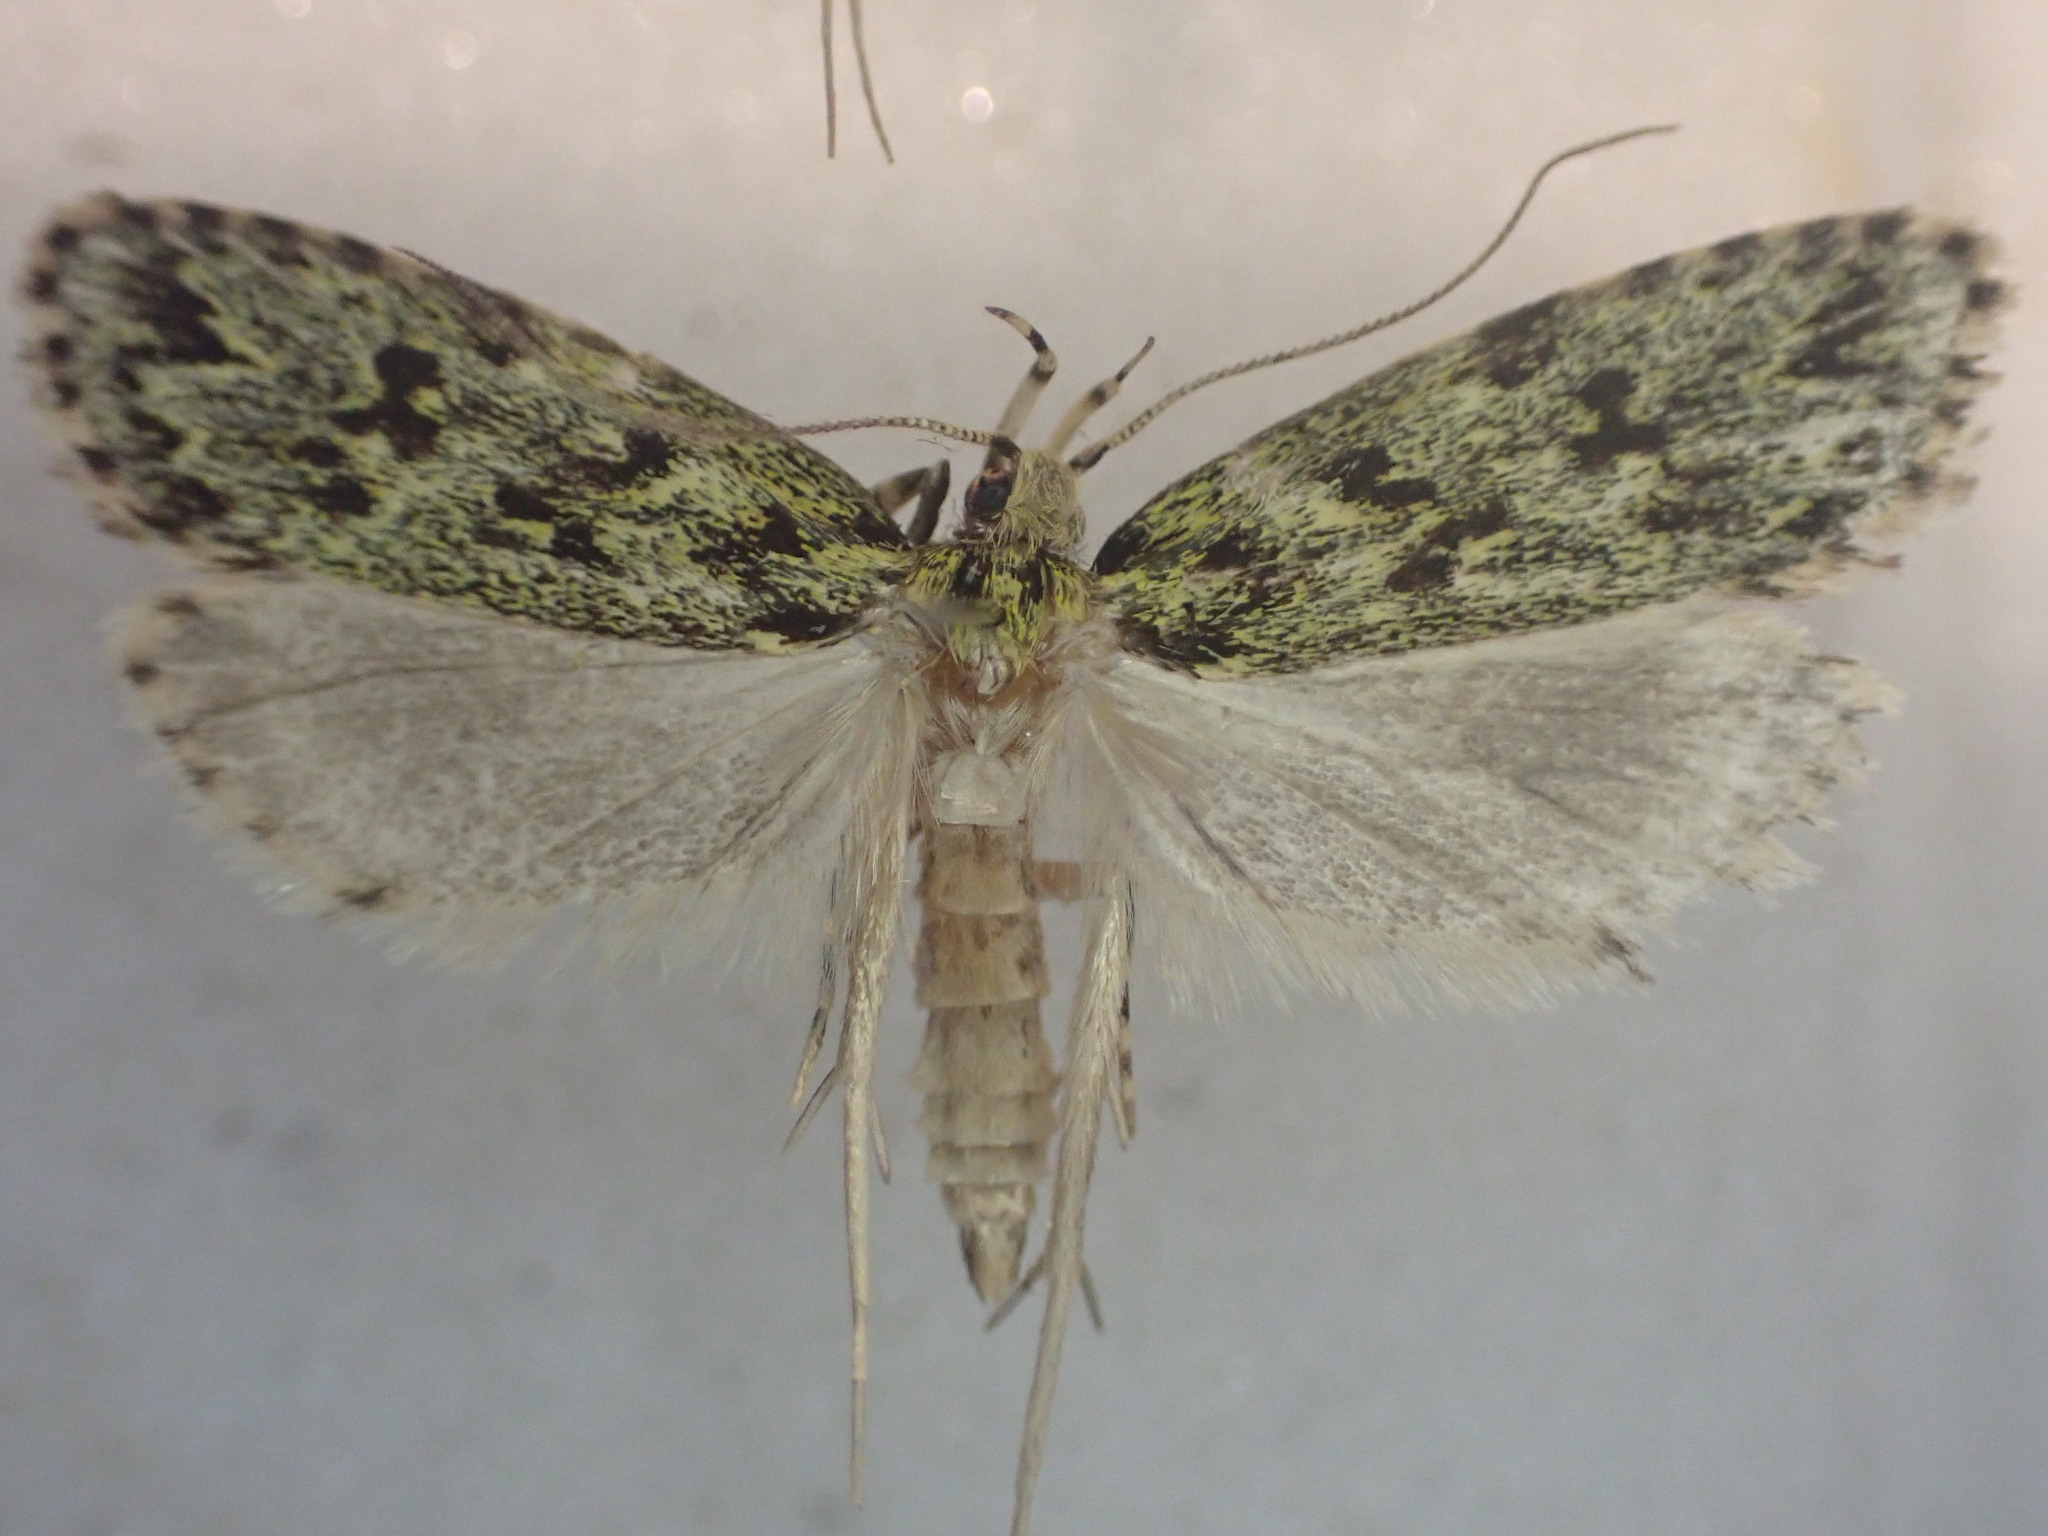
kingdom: Animalia
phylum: Arthropoda
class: Insecta
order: Lepidoptera
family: Oecophoridae
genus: Gymnobathra
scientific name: Gymnobathra bryaula
